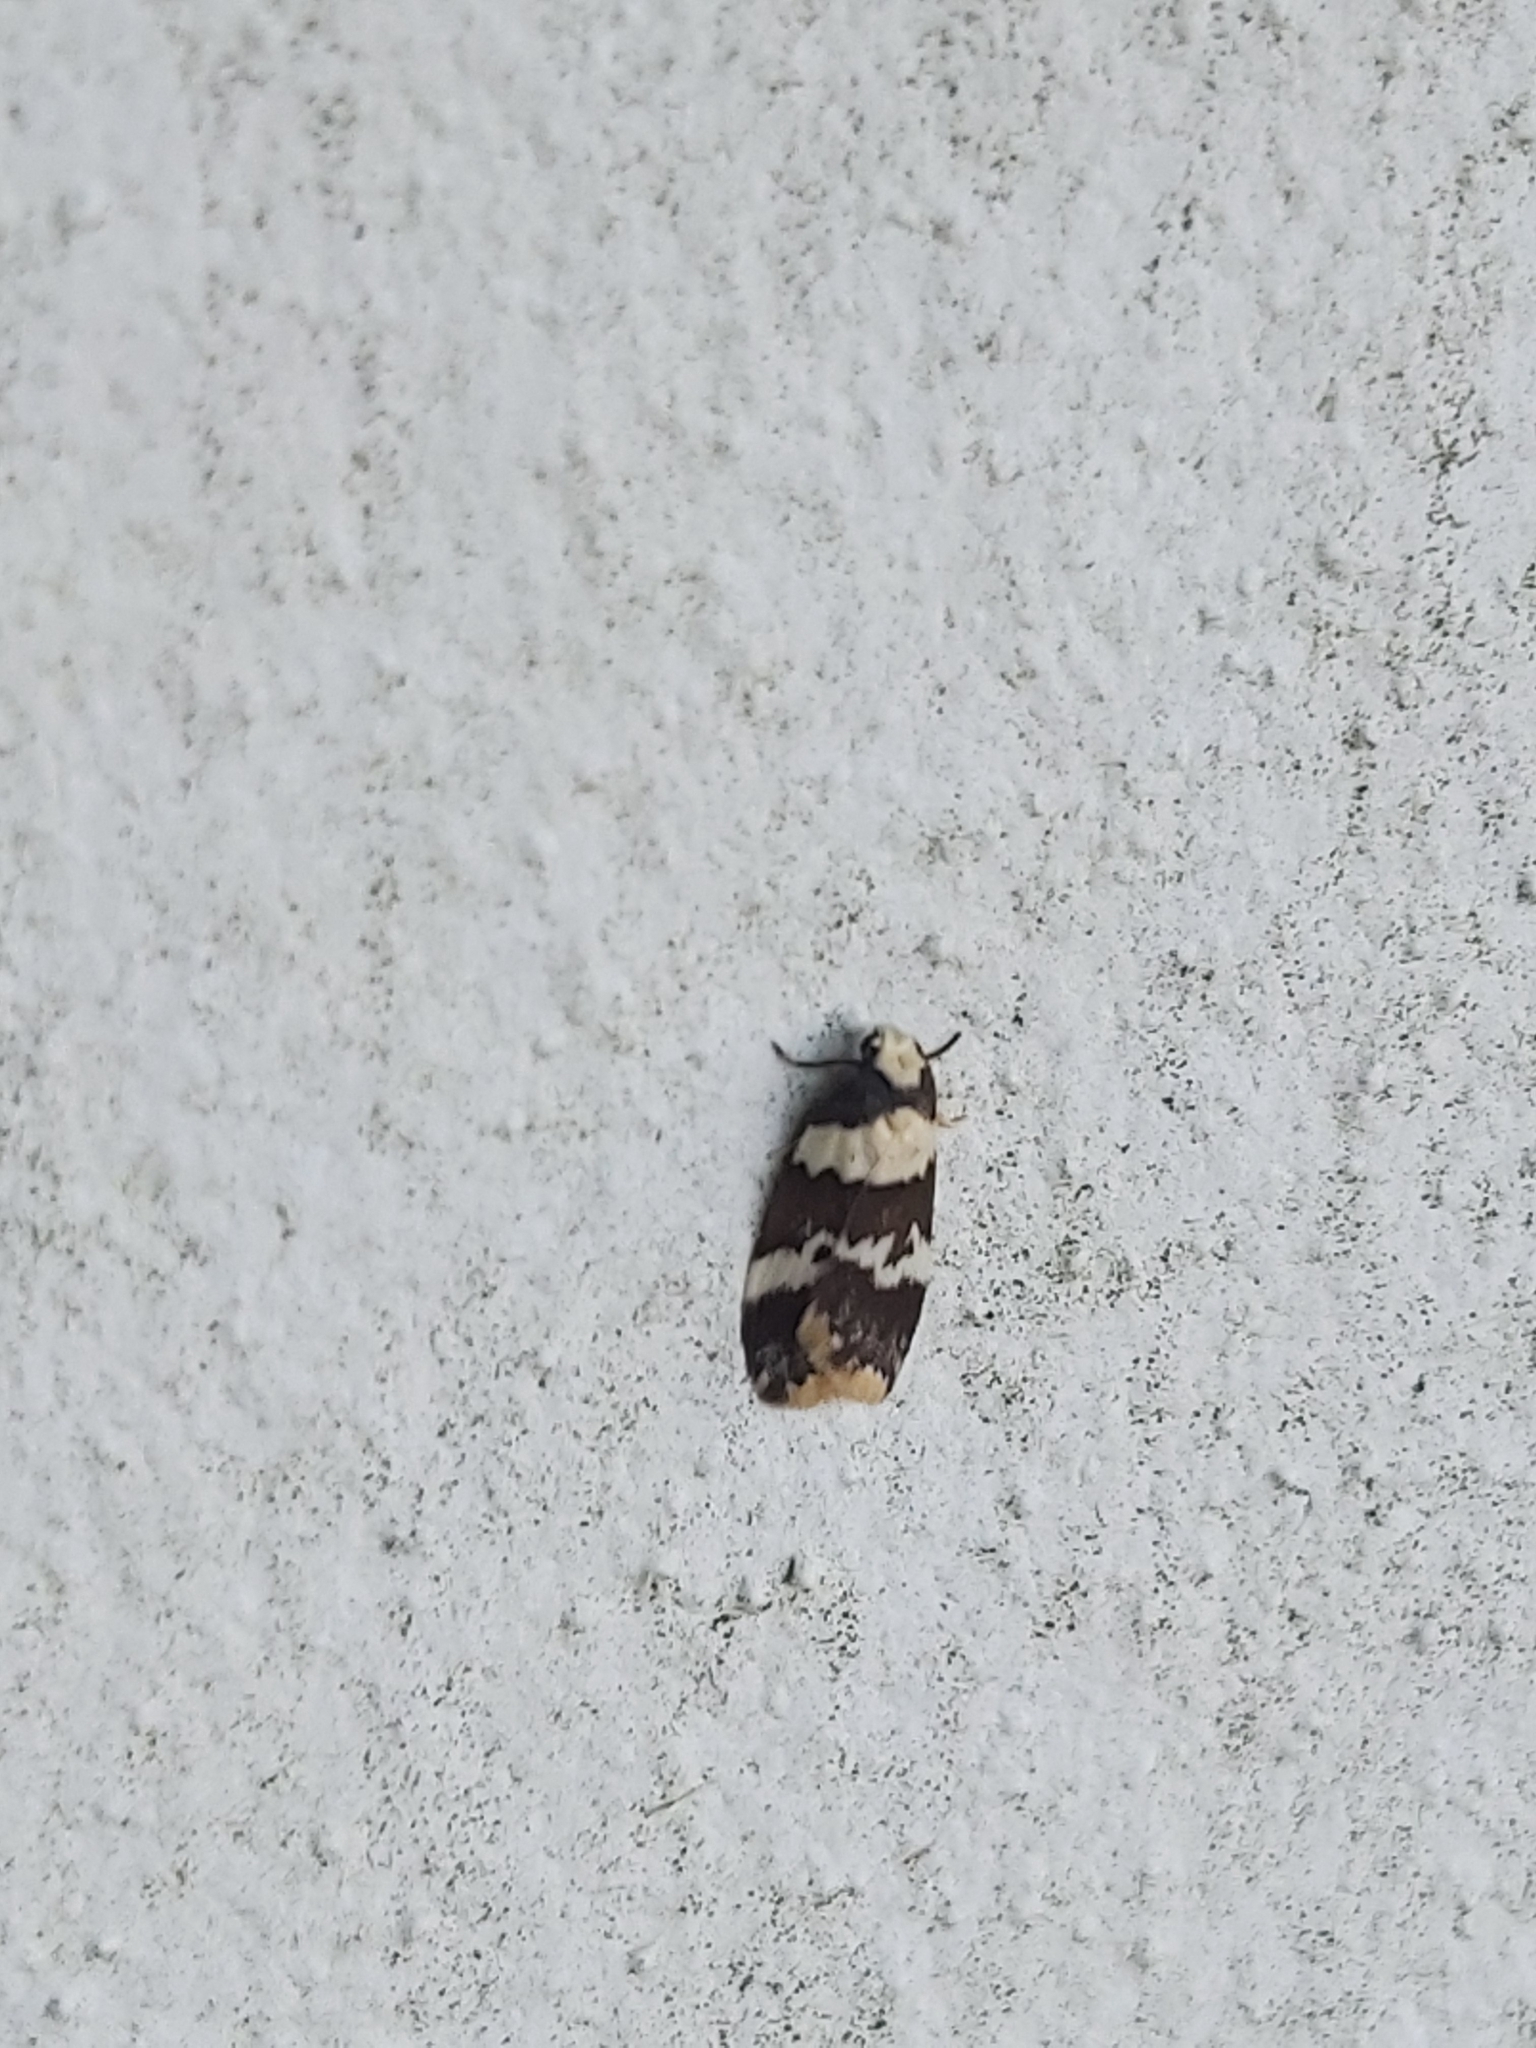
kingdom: Animalia
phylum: Arthropoda
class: Insecta
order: Lepidoptera
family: Erebidae
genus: Halone
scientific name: Halone sejuncta
